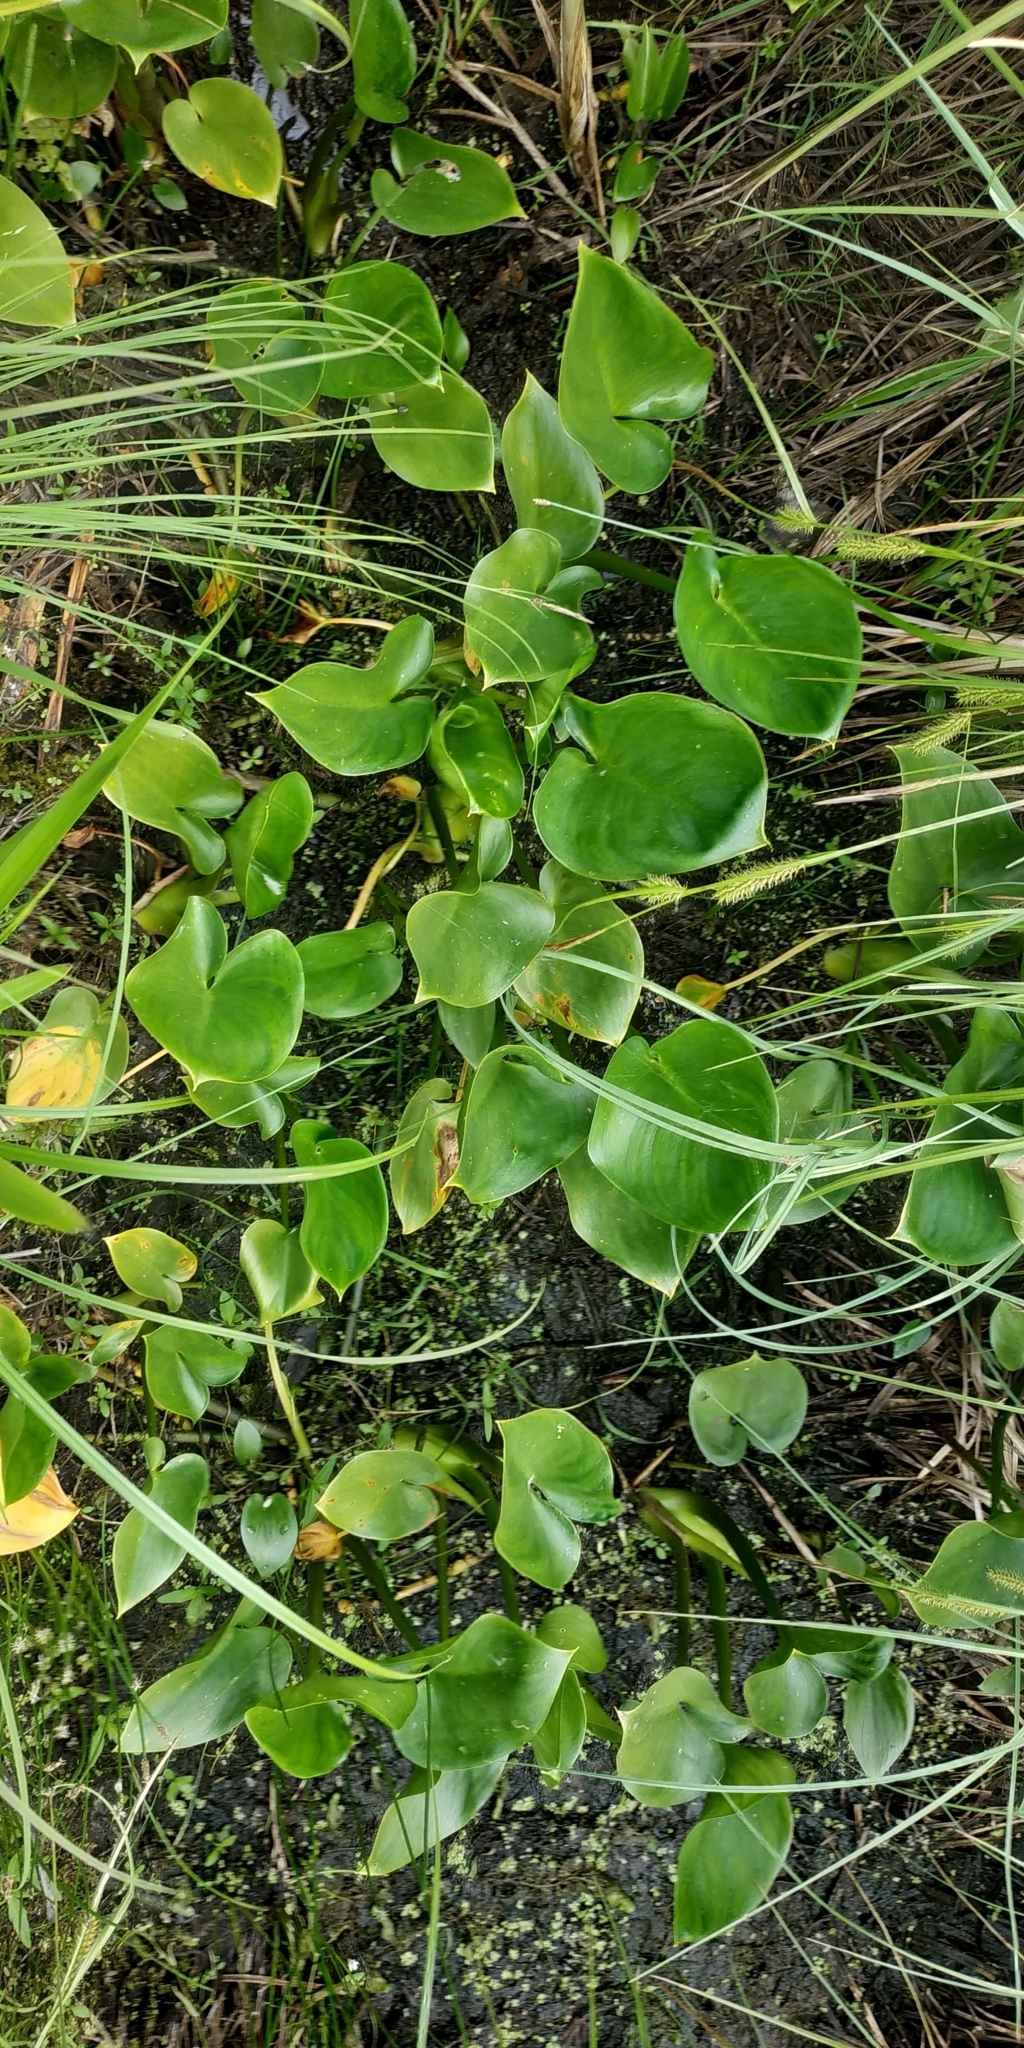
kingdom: Plantae
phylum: Tracheophyta
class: Liliopsida
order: Alismatales
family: Araceae
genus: Calla
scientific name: Calla palustris
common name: Bog arum
